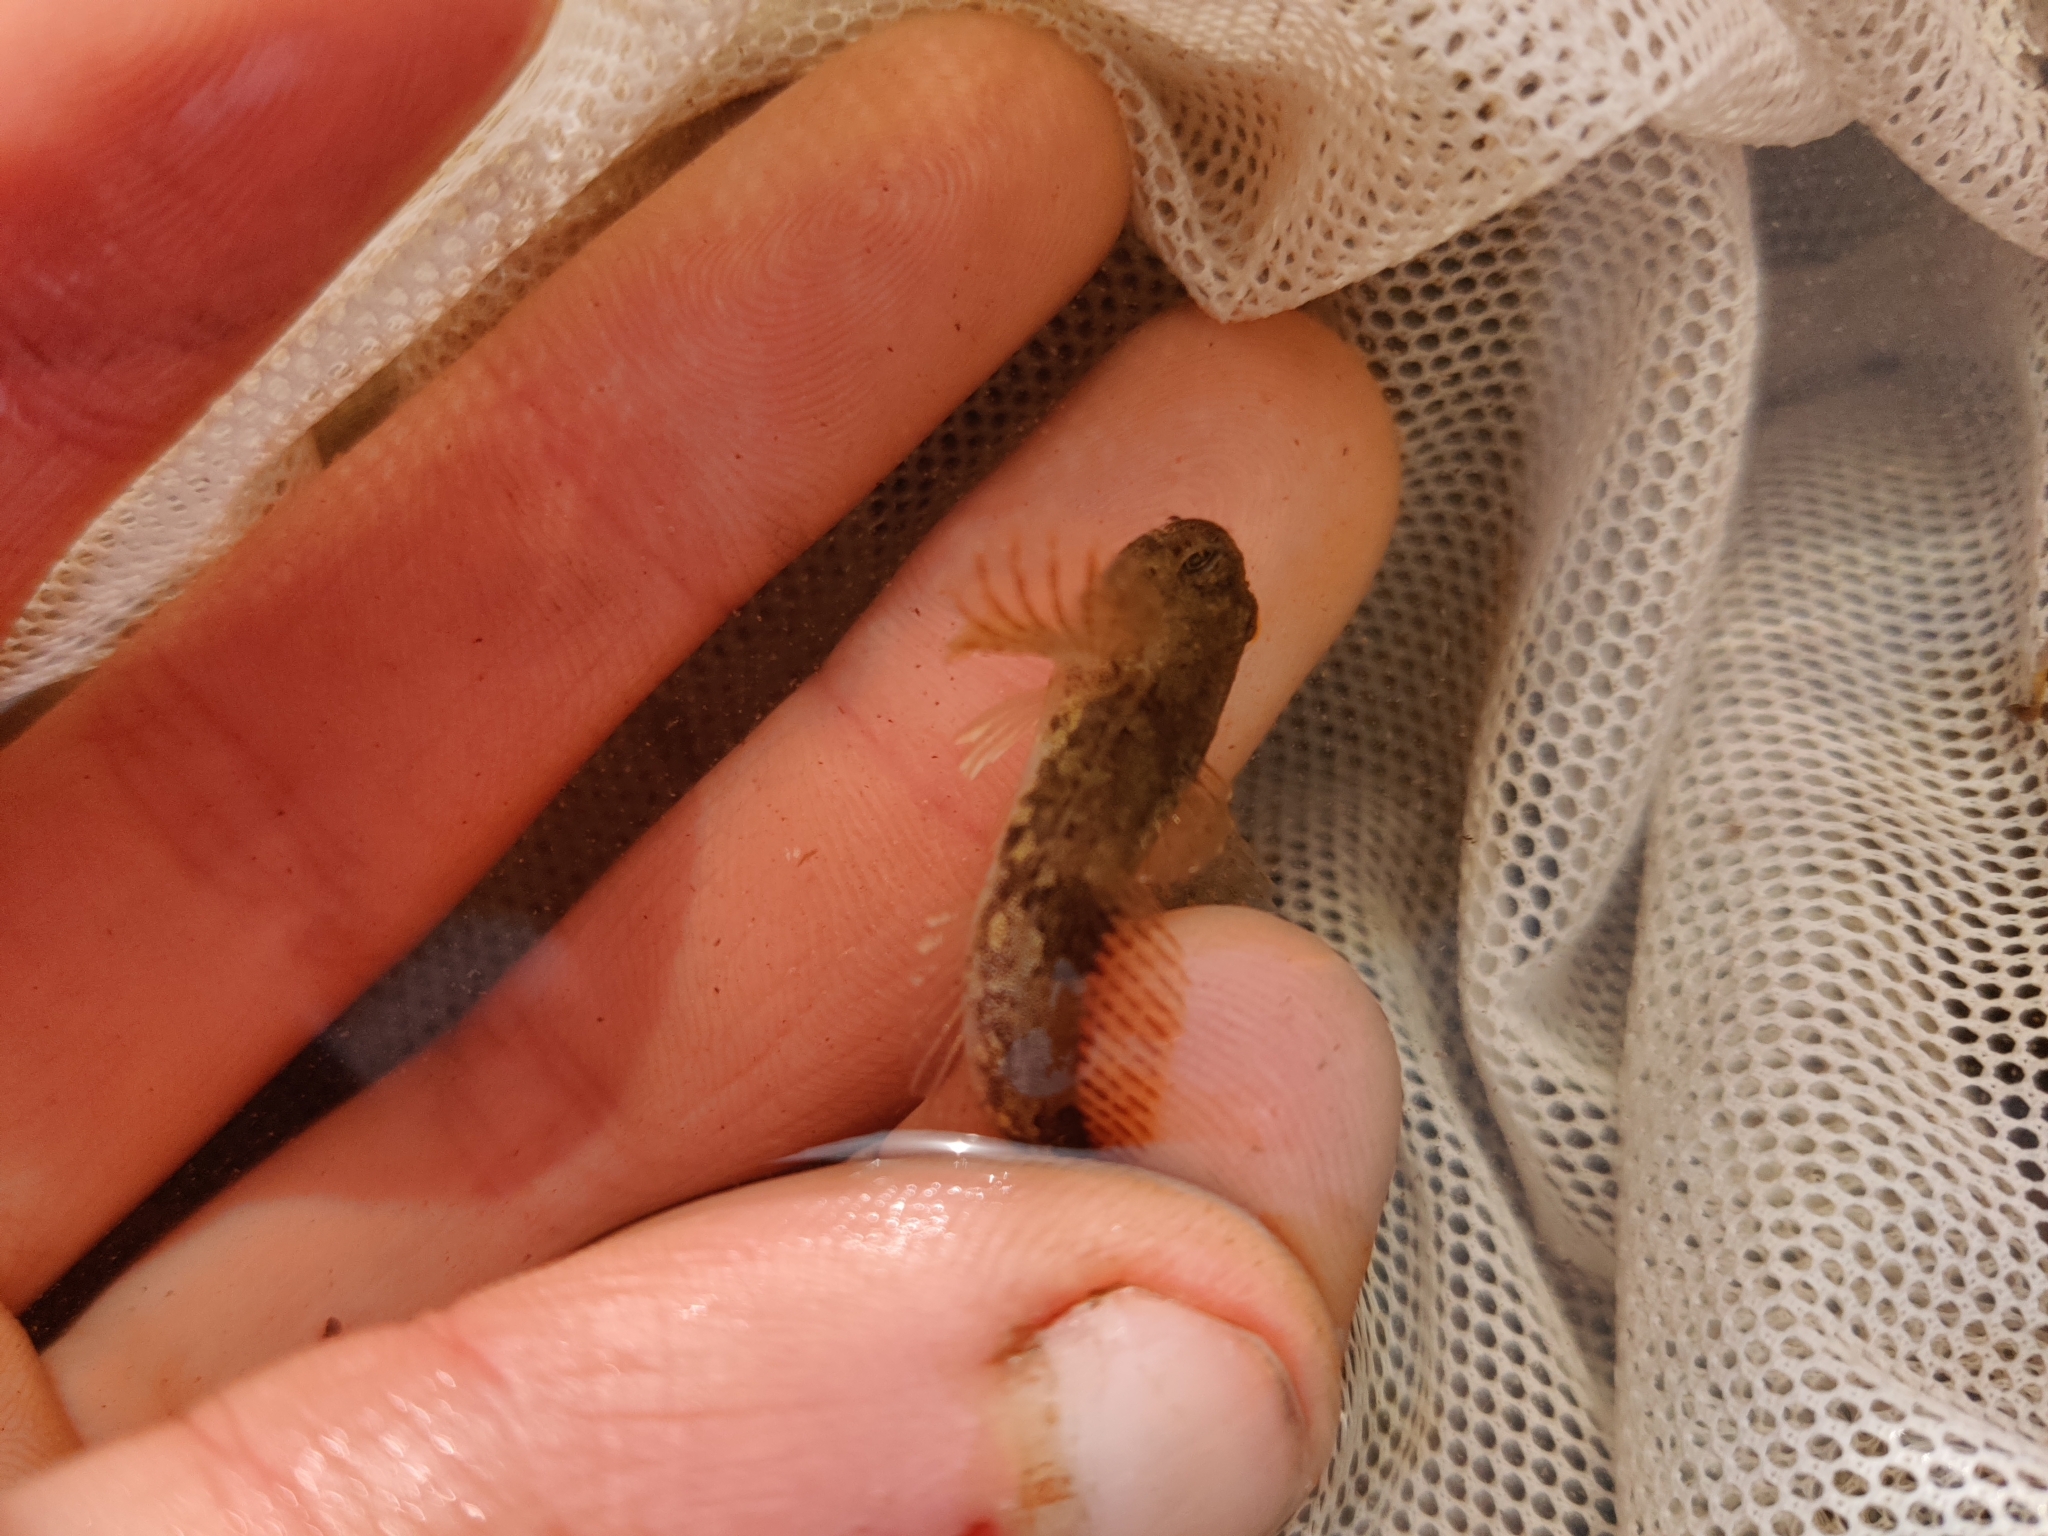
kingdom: Animalia
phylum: Chordata
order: Scorpaeniformes
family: Cottidae
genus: Cottus
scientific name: Cottus perifretum
